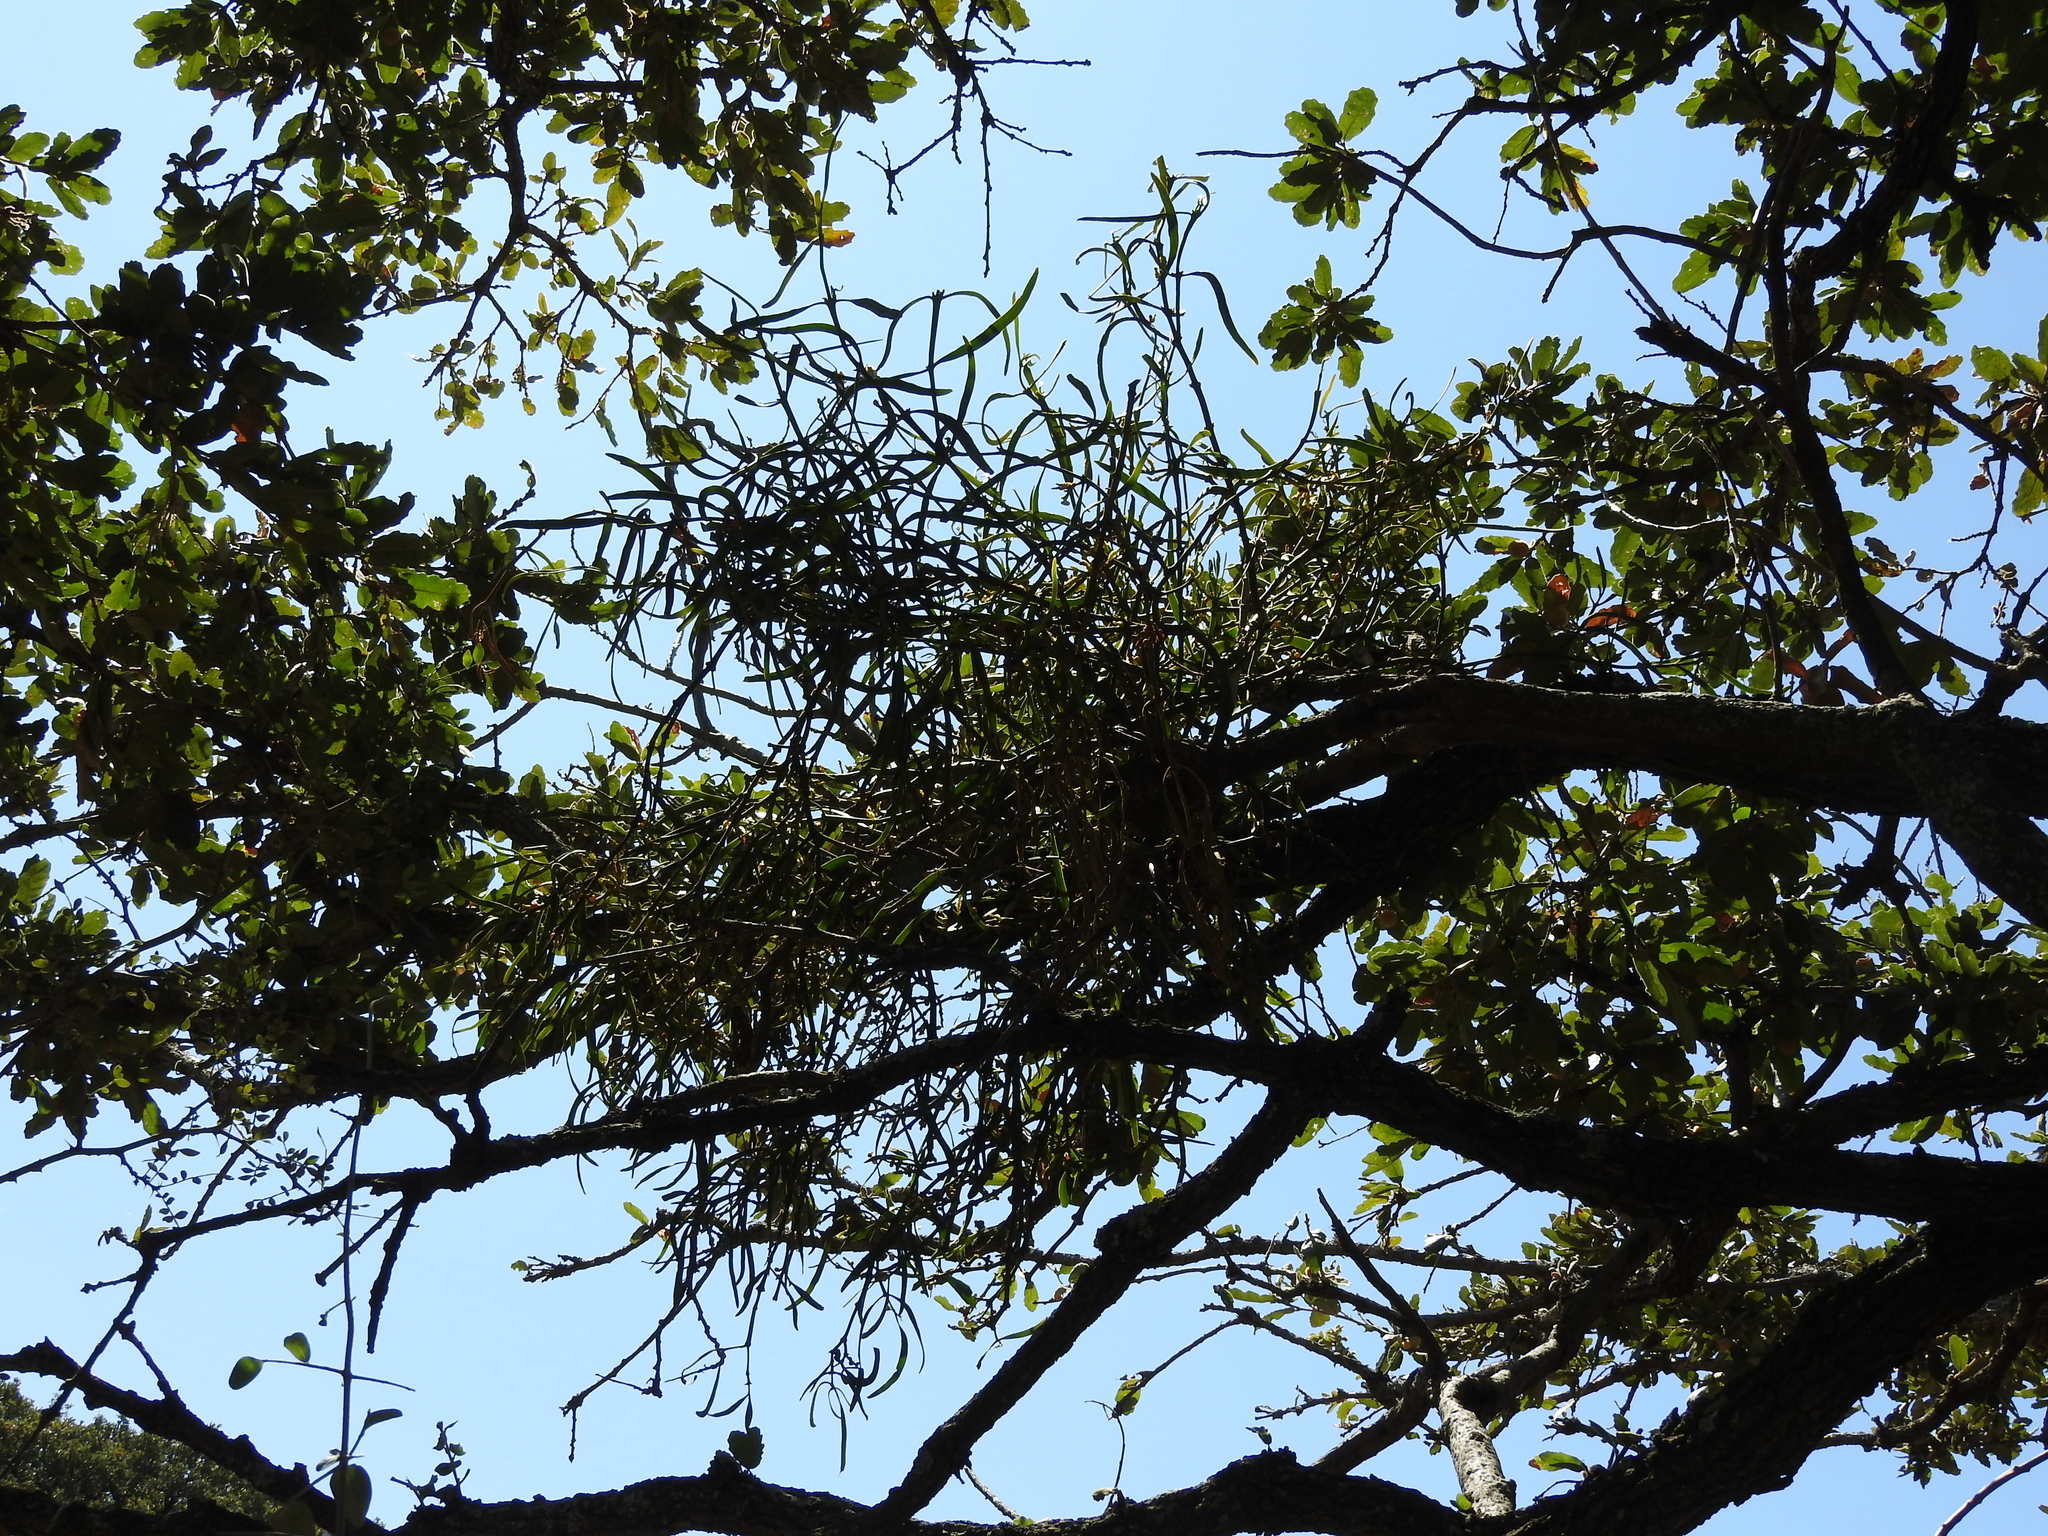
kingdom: Plantae
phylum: Tracheophyta
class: Magnoliopsida
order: Santalales
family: Loranthaceae
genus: Psittacanthus
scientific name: Psittacanthus calyculatus
